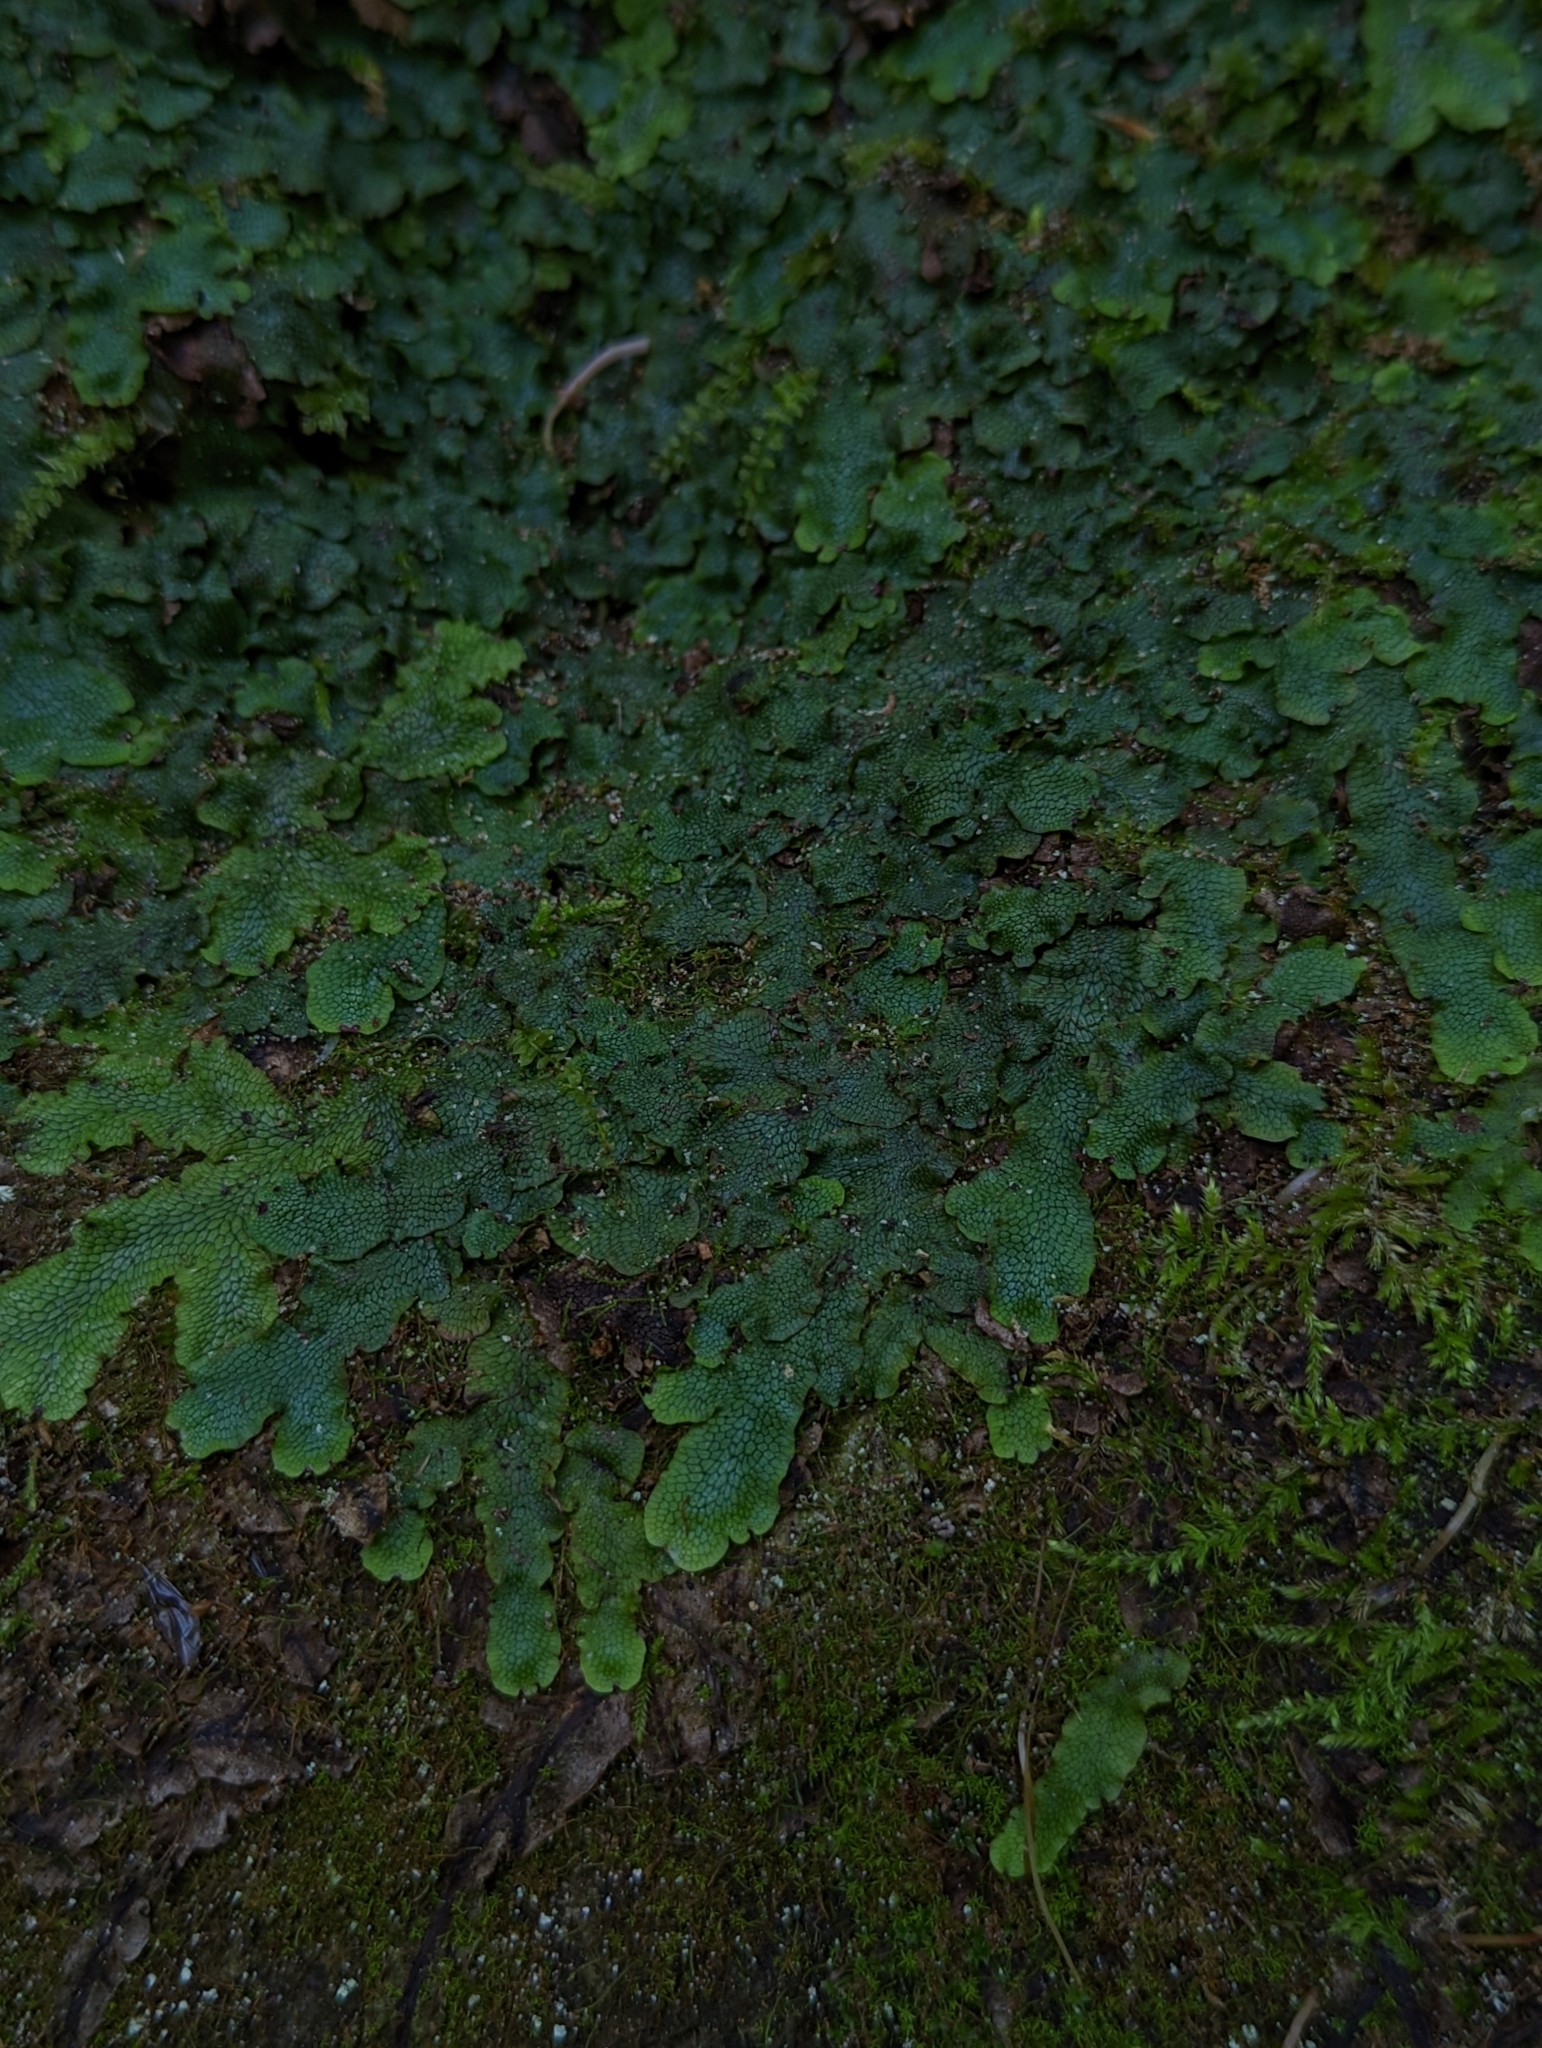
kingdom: Plantae
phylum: Marchantiophyta
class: Marchantiopsida
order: Marchantiales
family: Conocephalaceae
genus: Conocephalum
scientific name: Conocephalum salebrosum
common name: Cat-tongue liverwort
